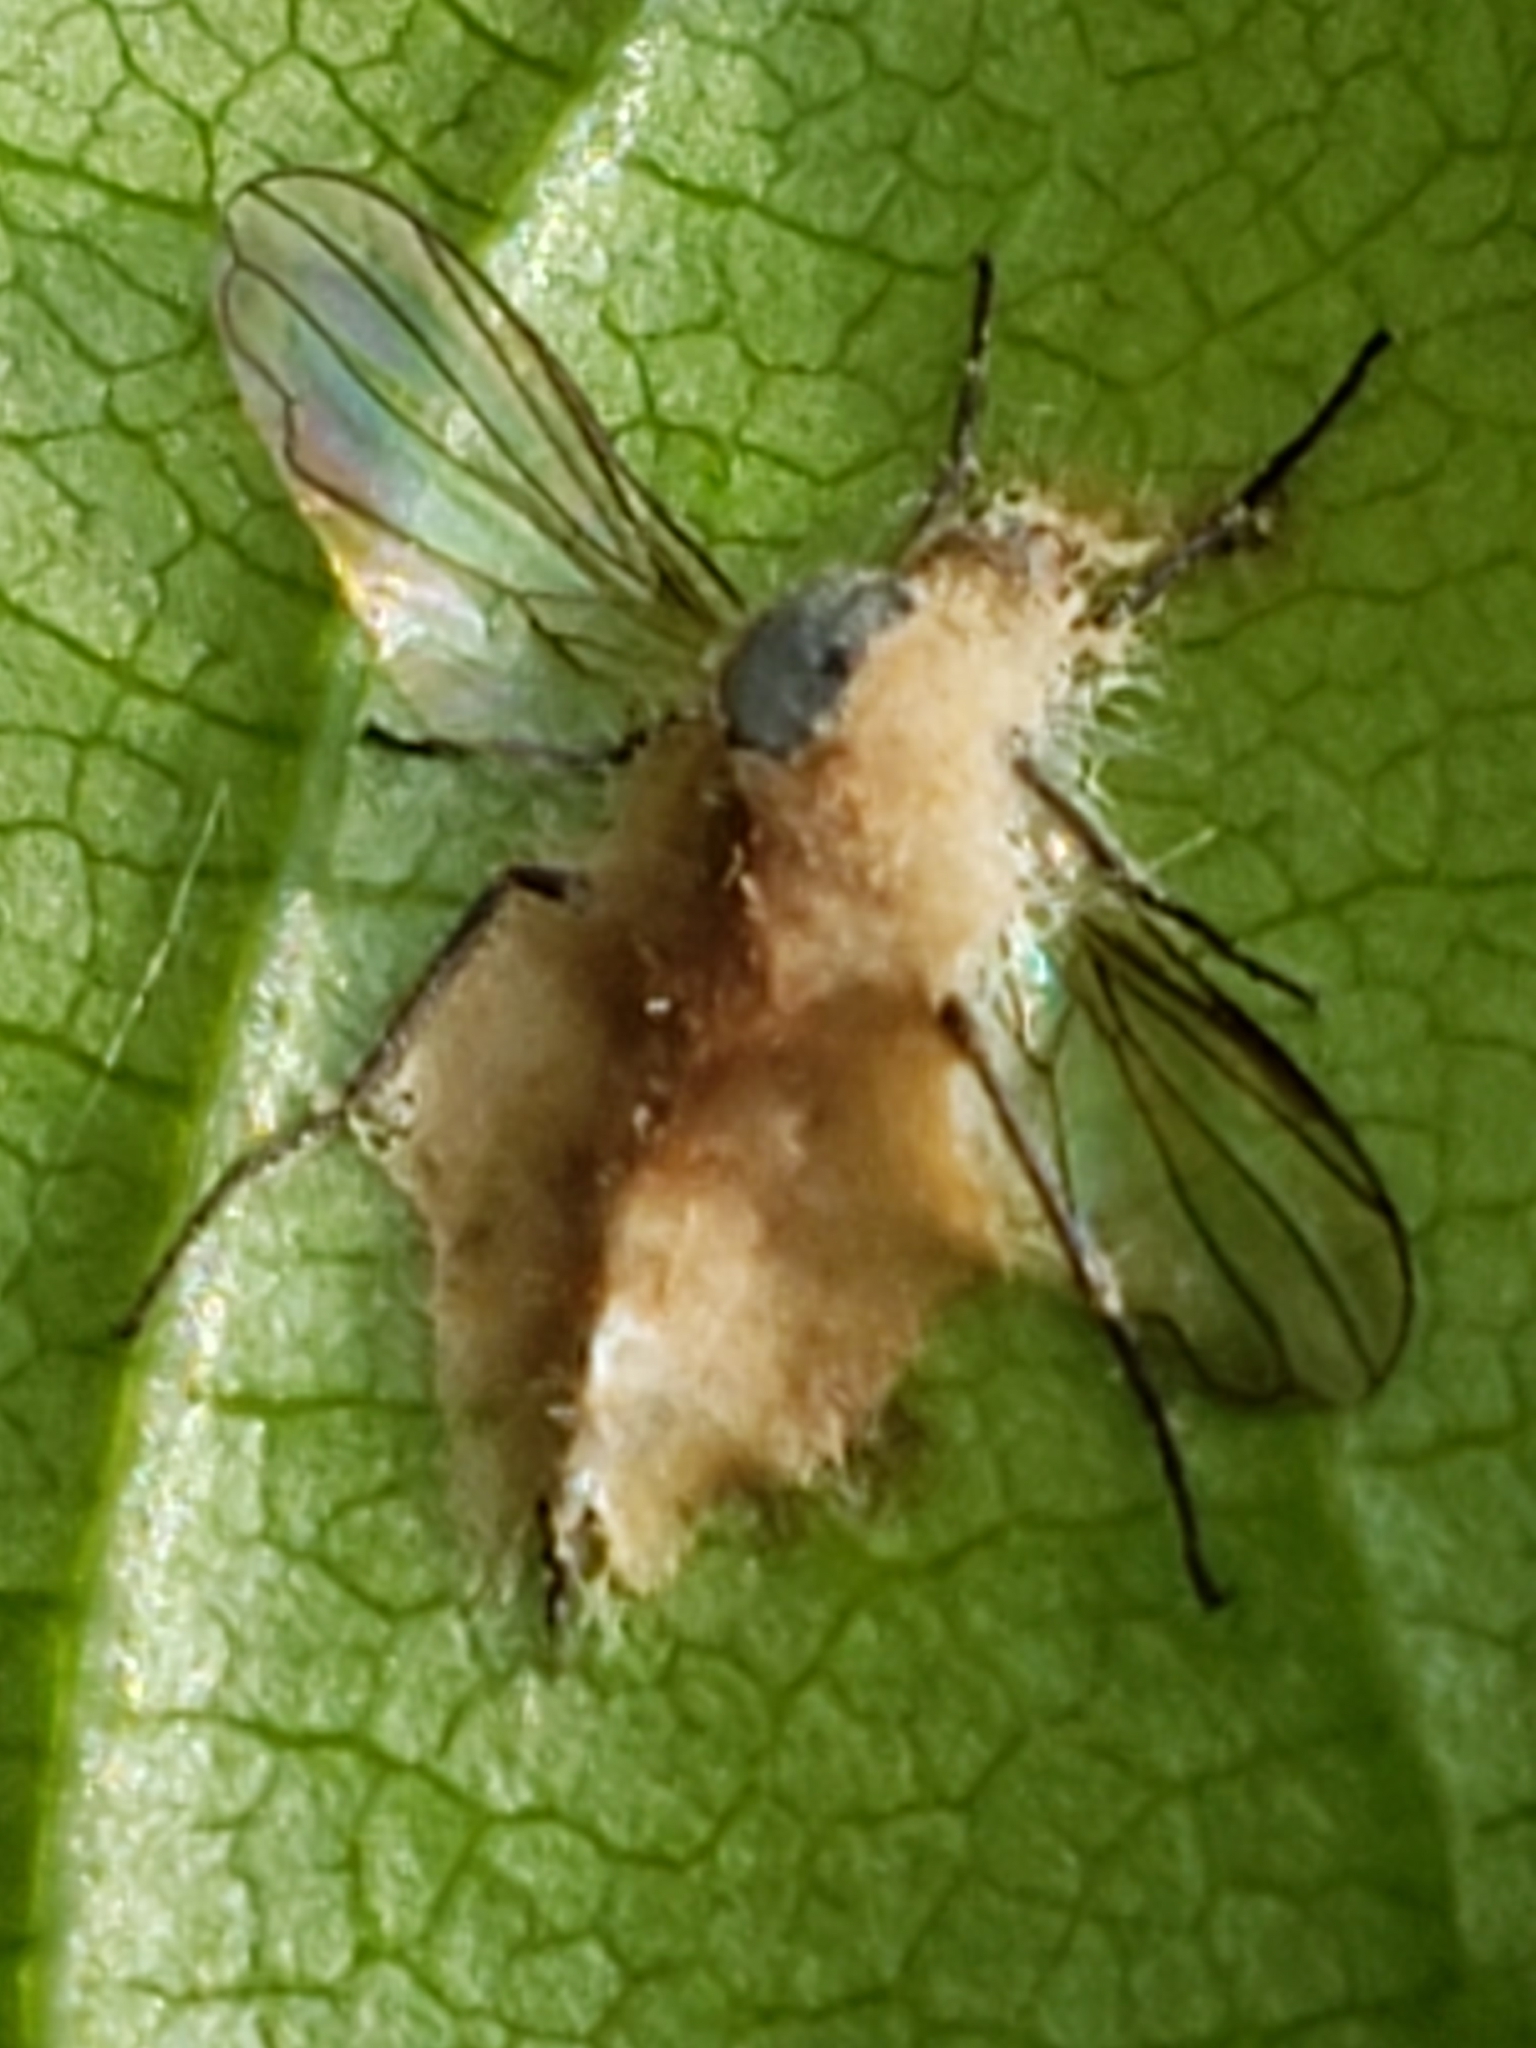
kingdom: Fungi
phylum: Entomophthoromycota
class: Entomophthoromycetes
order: Entomophthorales
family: Entomophthoraceae
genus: Entomophthora
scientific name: Entomophthora
